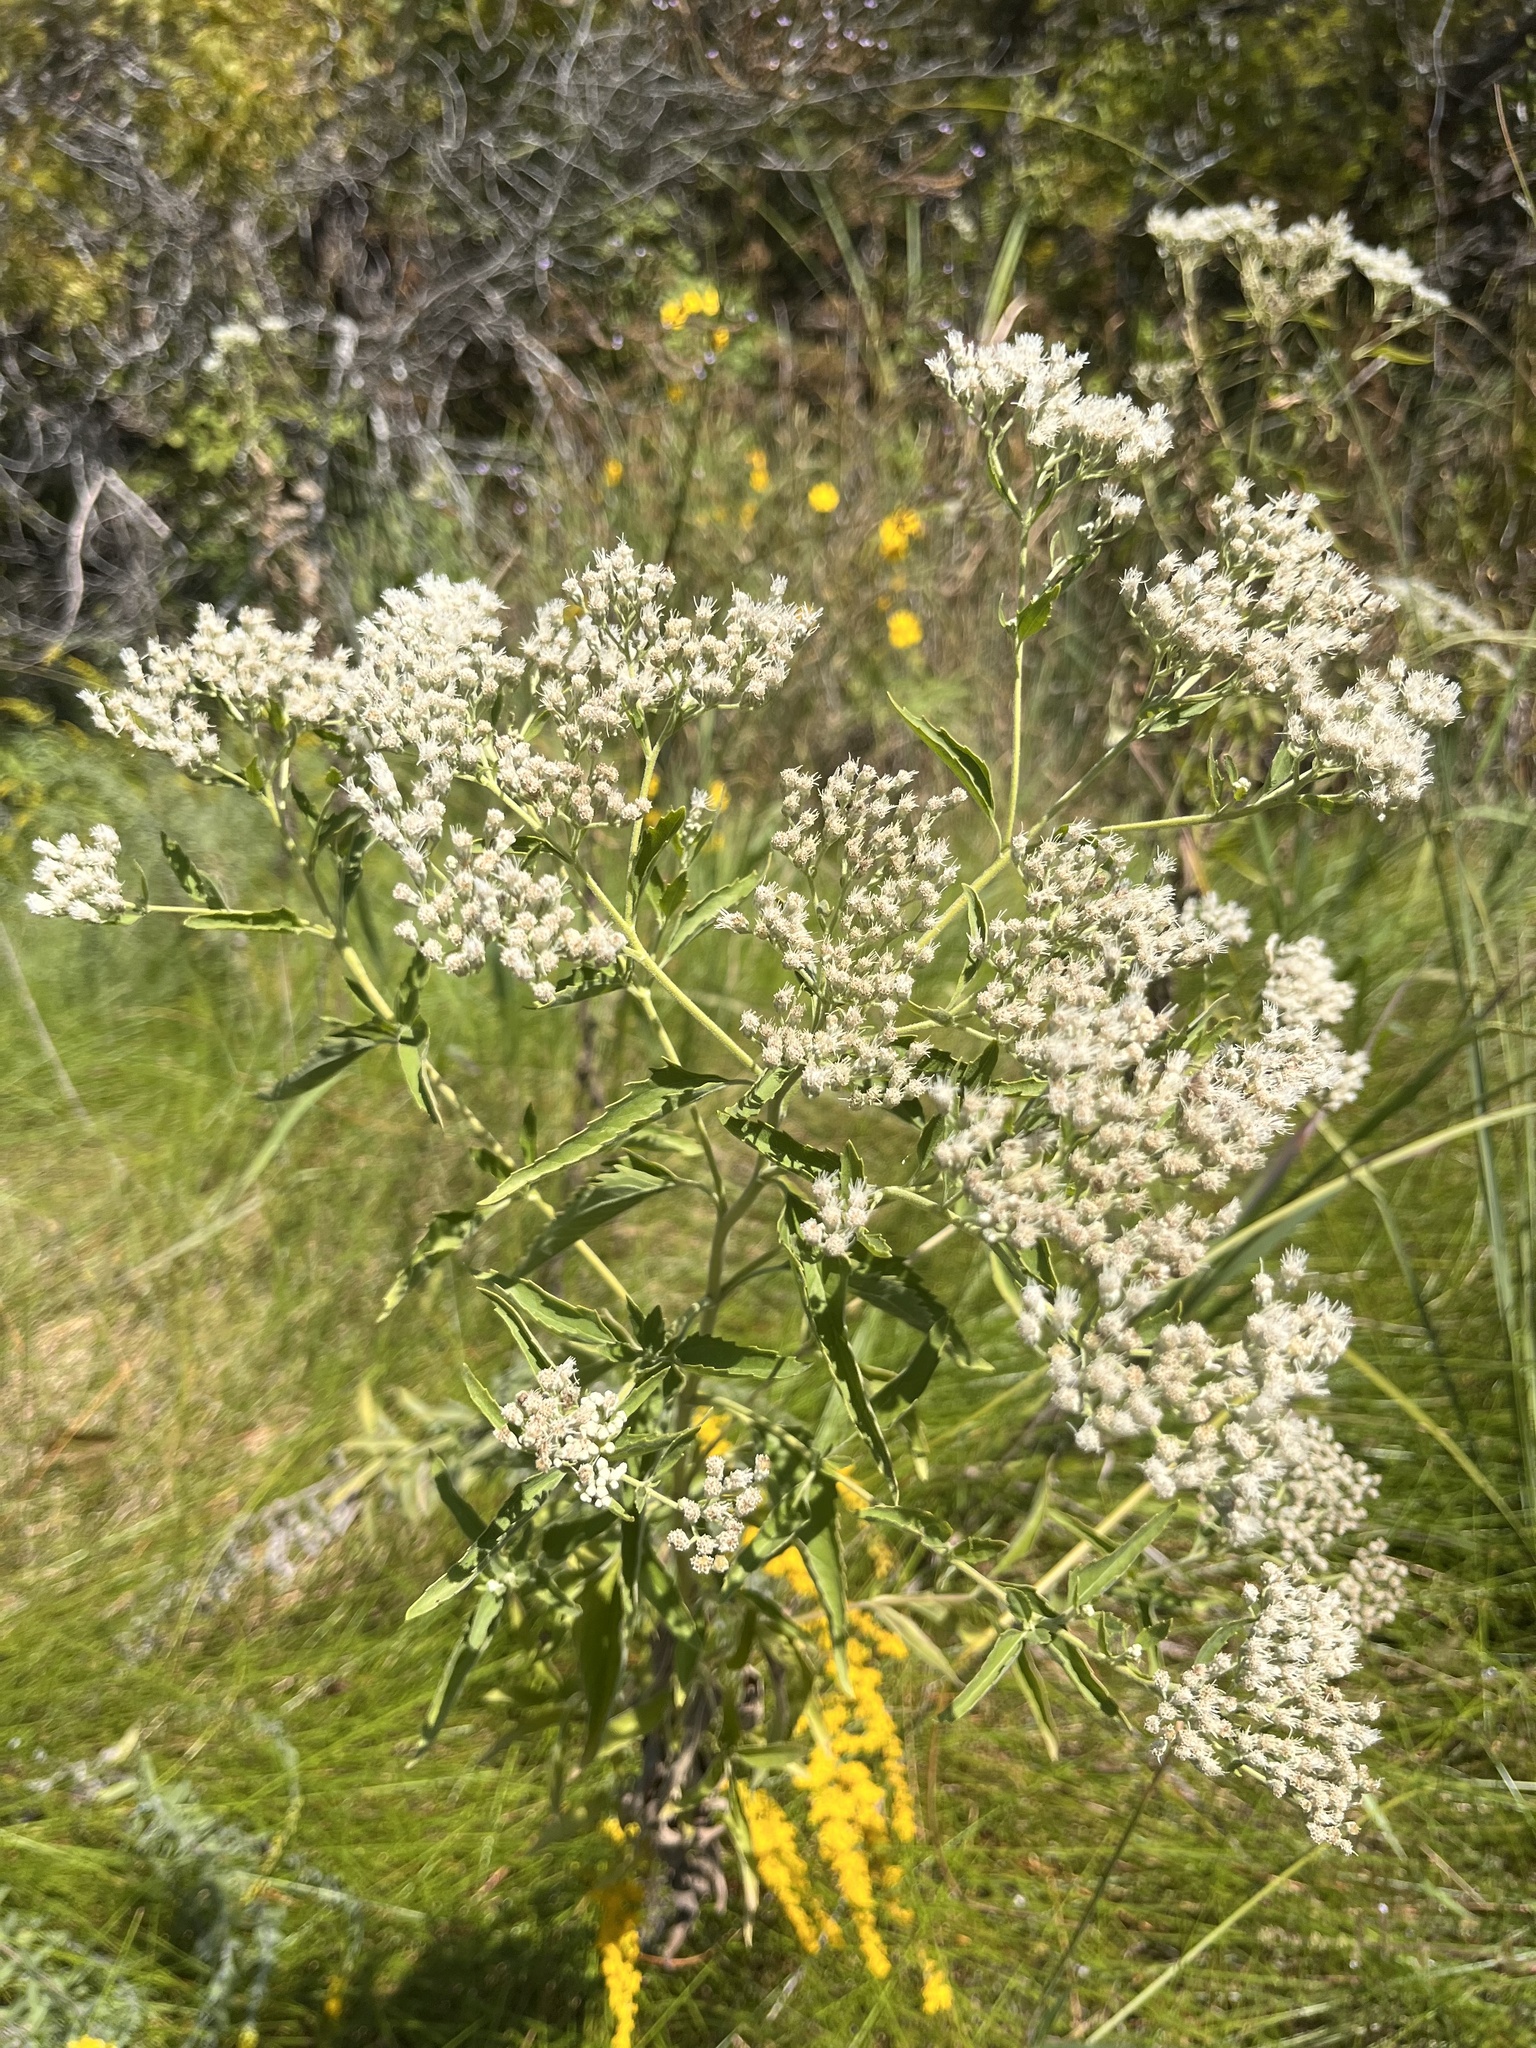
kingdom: Plantae
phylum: Tracheophyta
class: Magnoliopsida
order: Asterales
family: Asteraceae
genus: Eupatorium
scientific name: Eupatorium serotinum
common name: Late boneset
